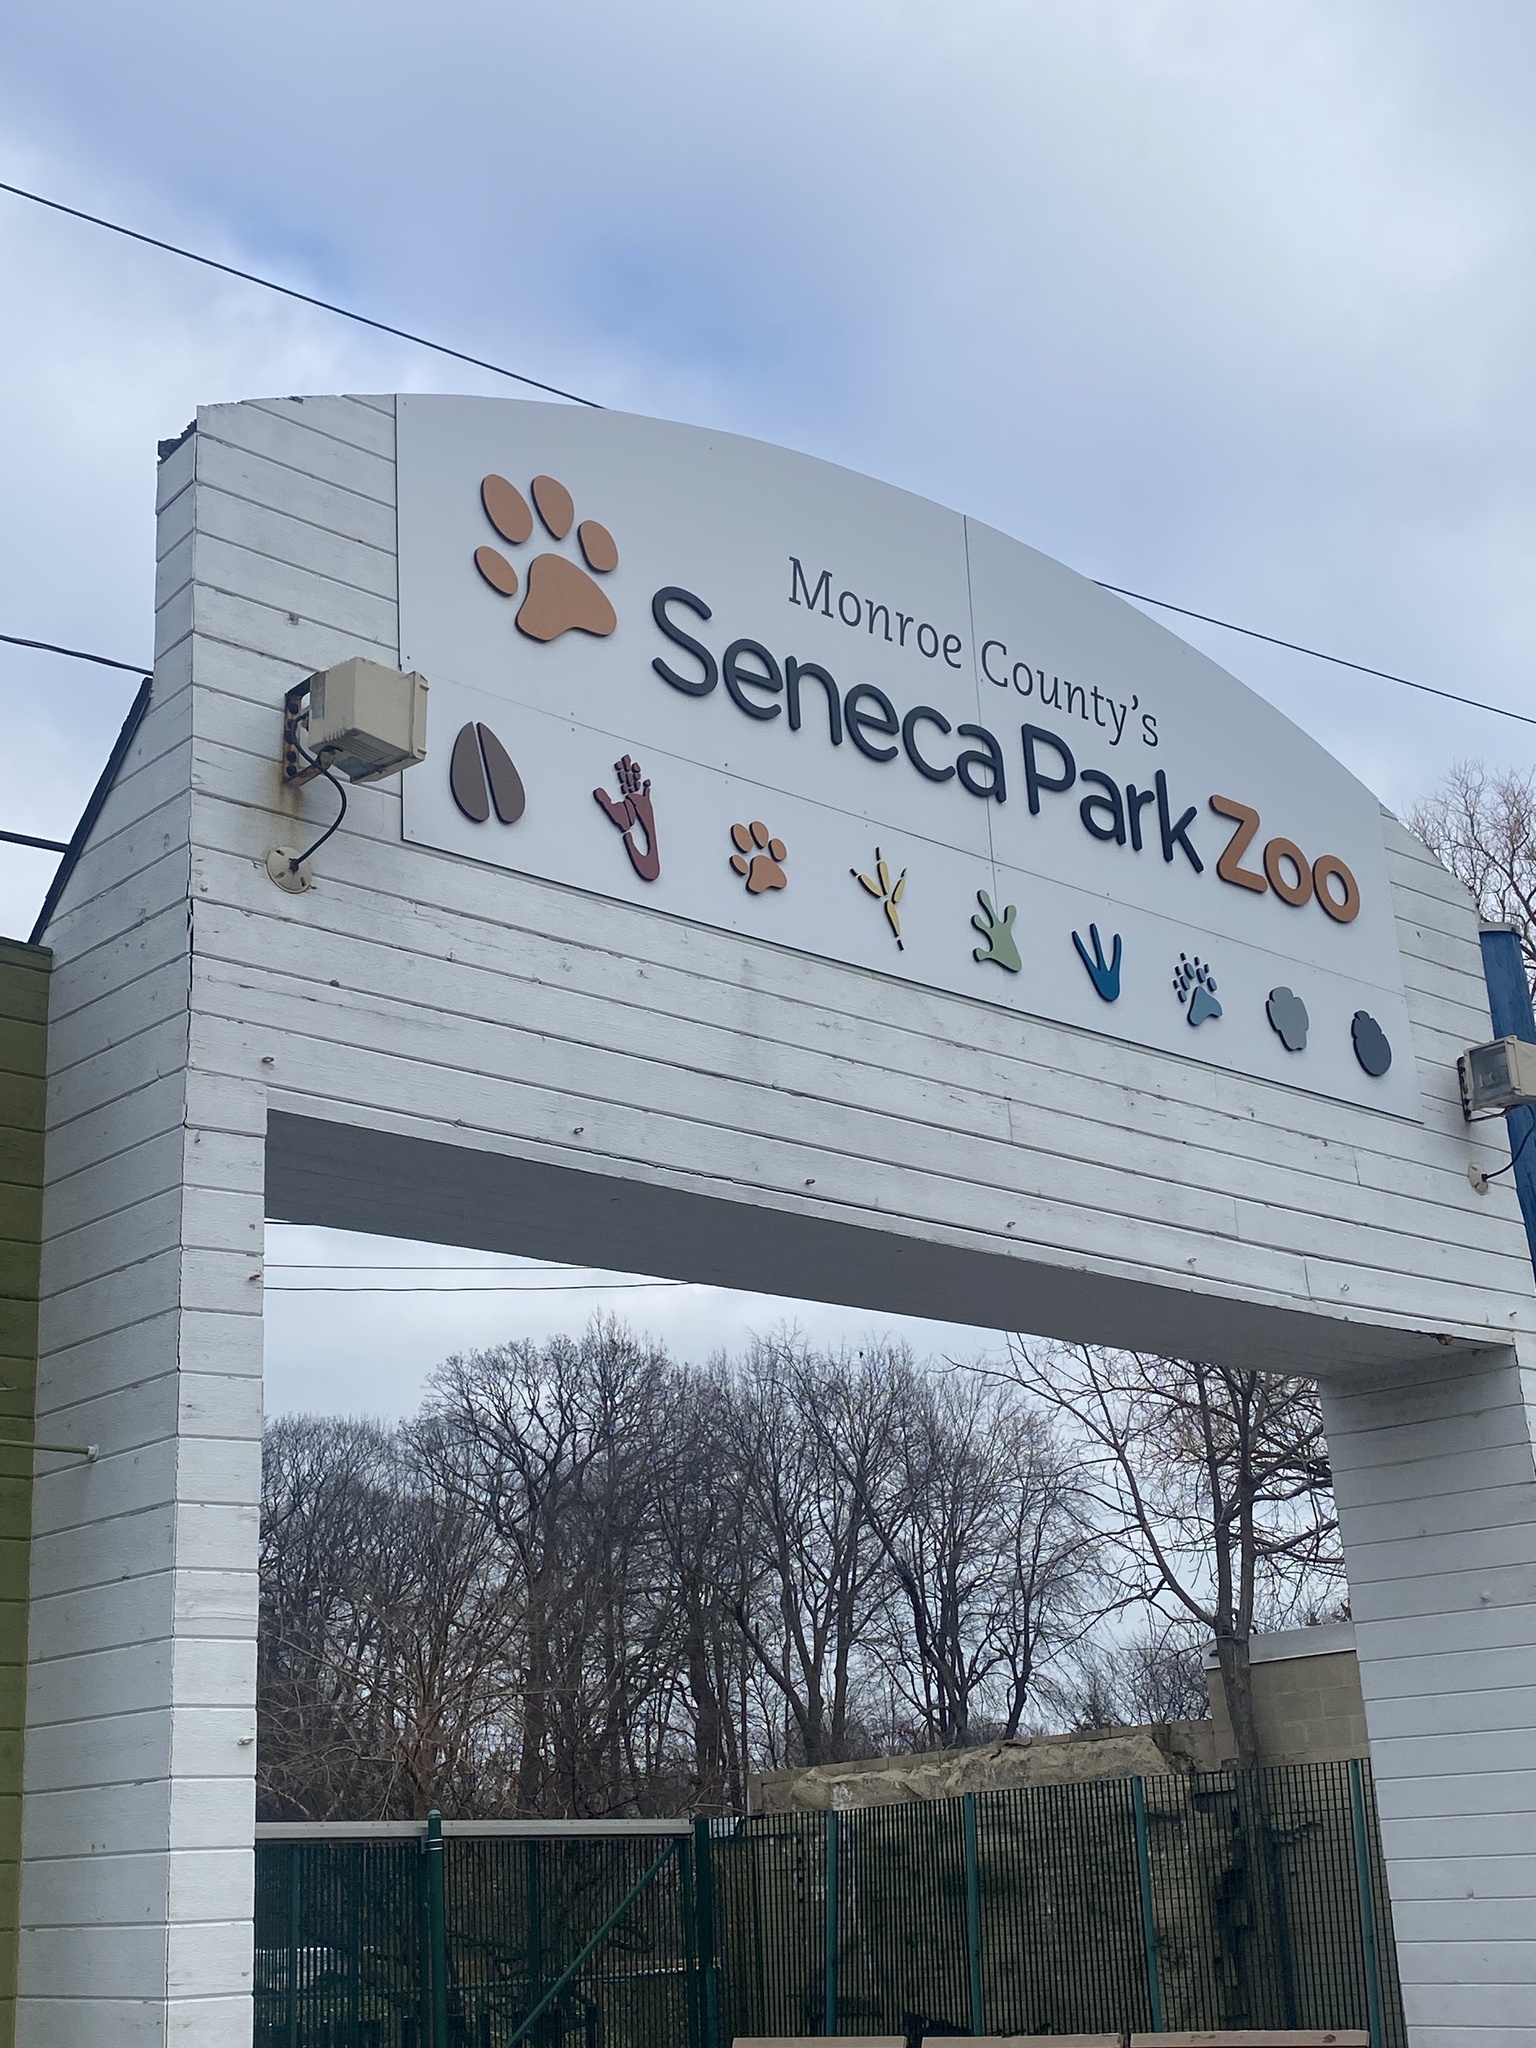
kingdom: Plantae
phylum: Tracheophyta
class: Magnoliopsida
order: Gentianales
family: Apocynaceae
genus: Vinca
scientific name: Vinca minor
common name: Lesser periwinkle
